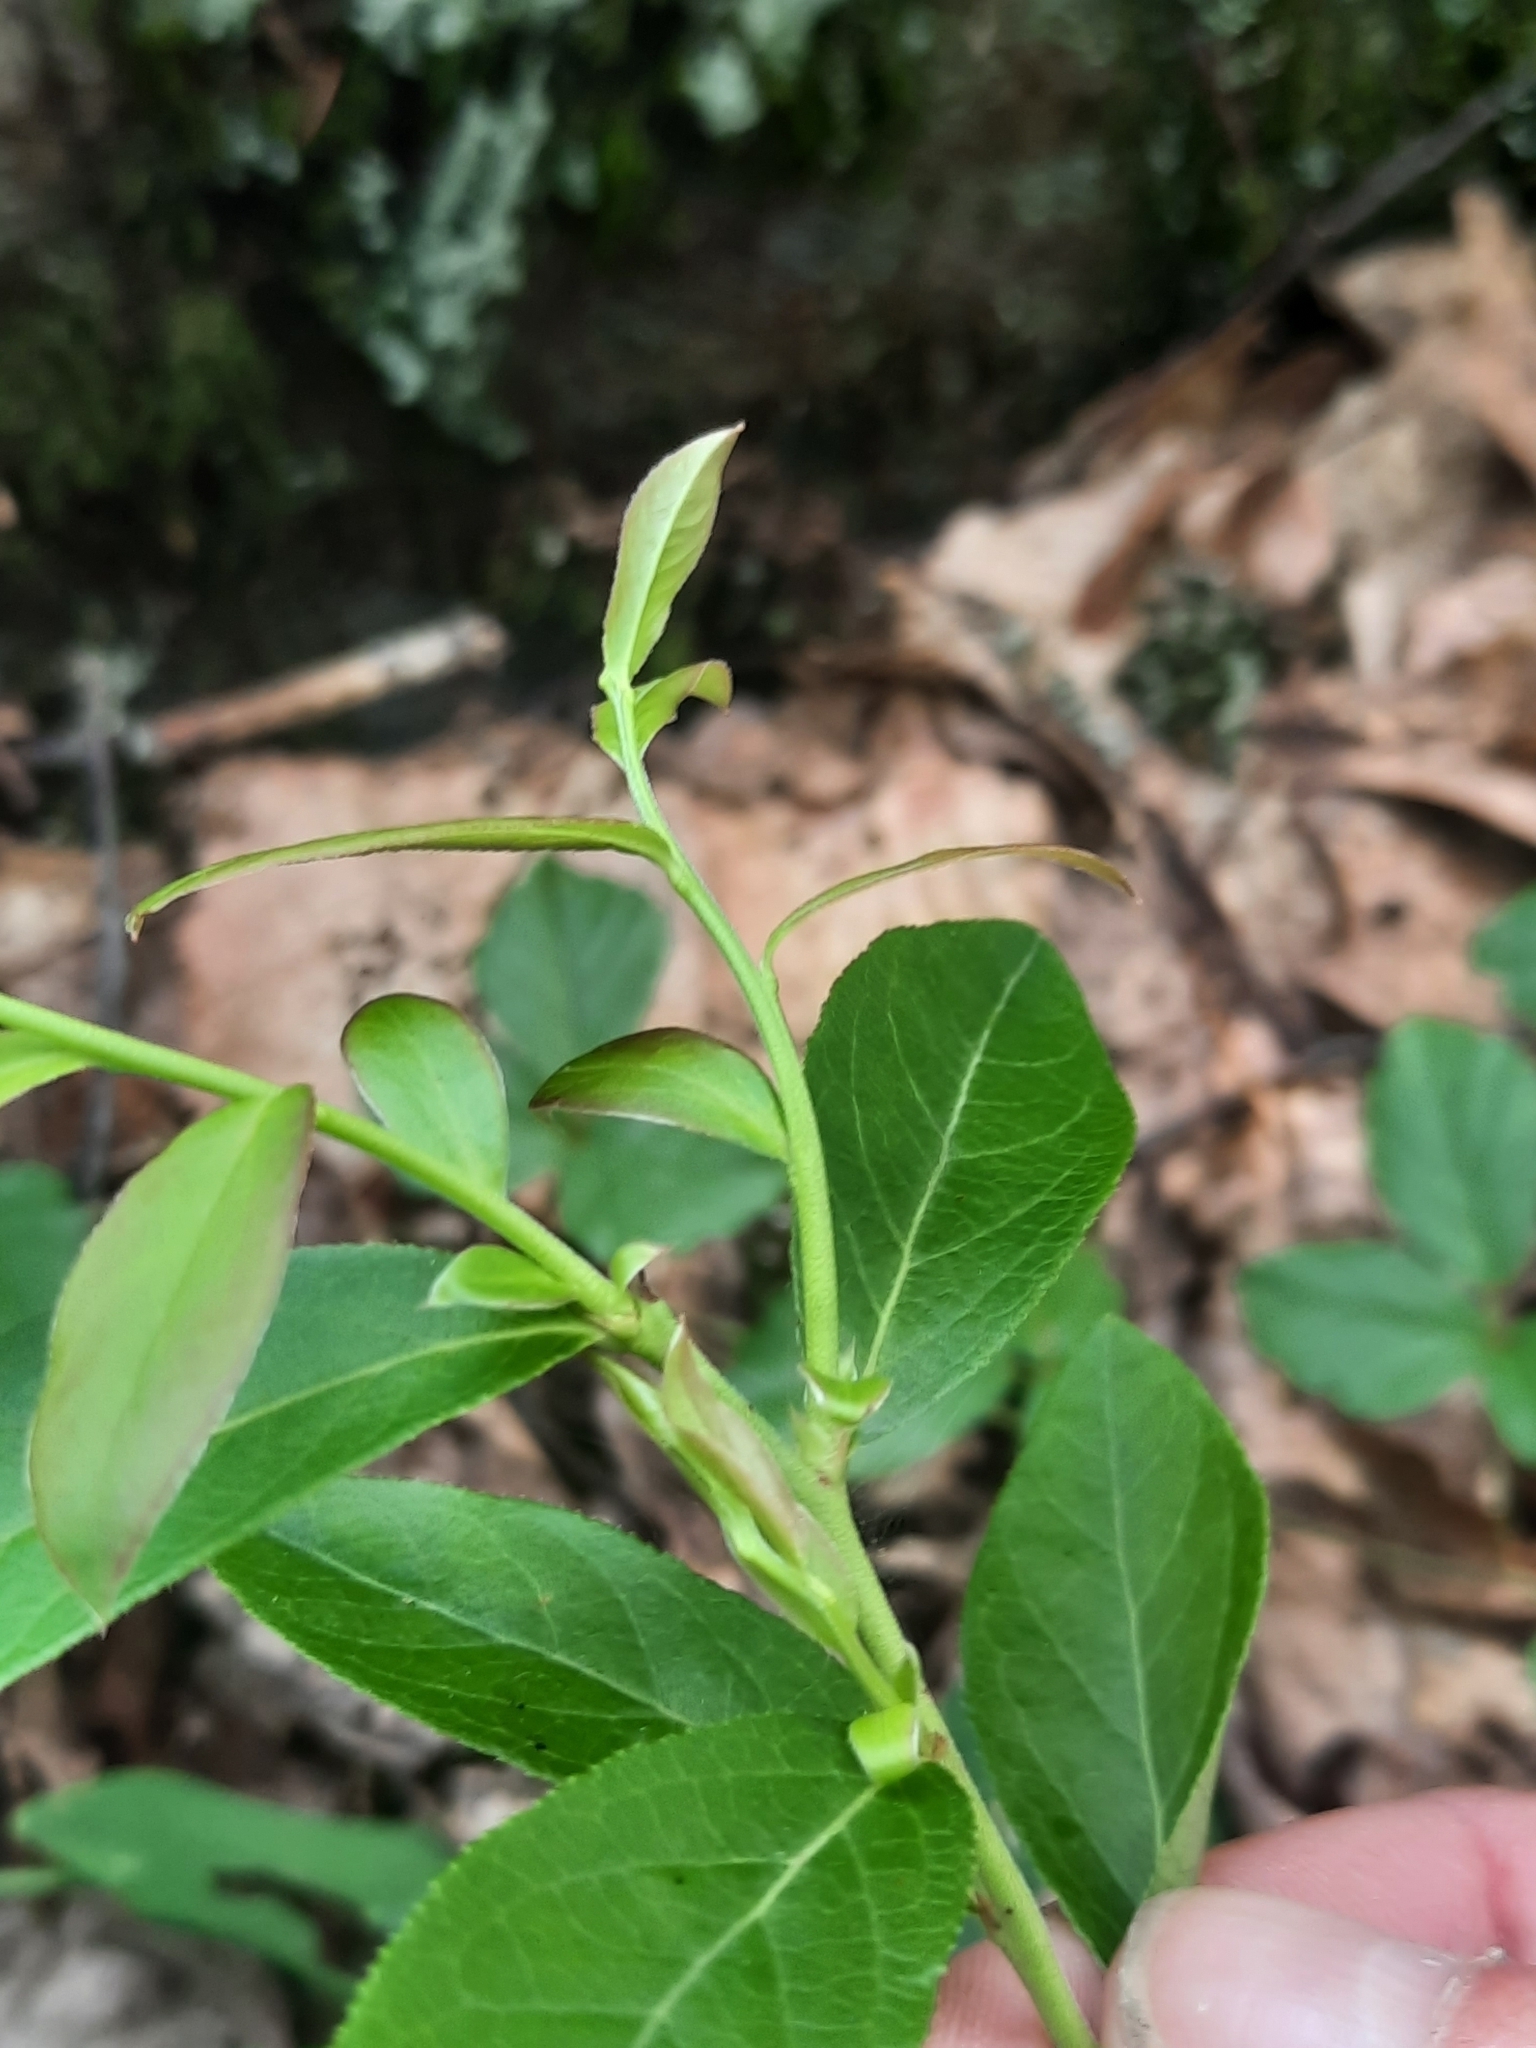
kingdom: Plantae
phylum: Tracheophyta
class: Magnoliopsida
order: Ericales
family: Ericaceae
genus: Vaccinium
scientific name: Vaccinium angustifolium
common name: Early lowbush blueberry
